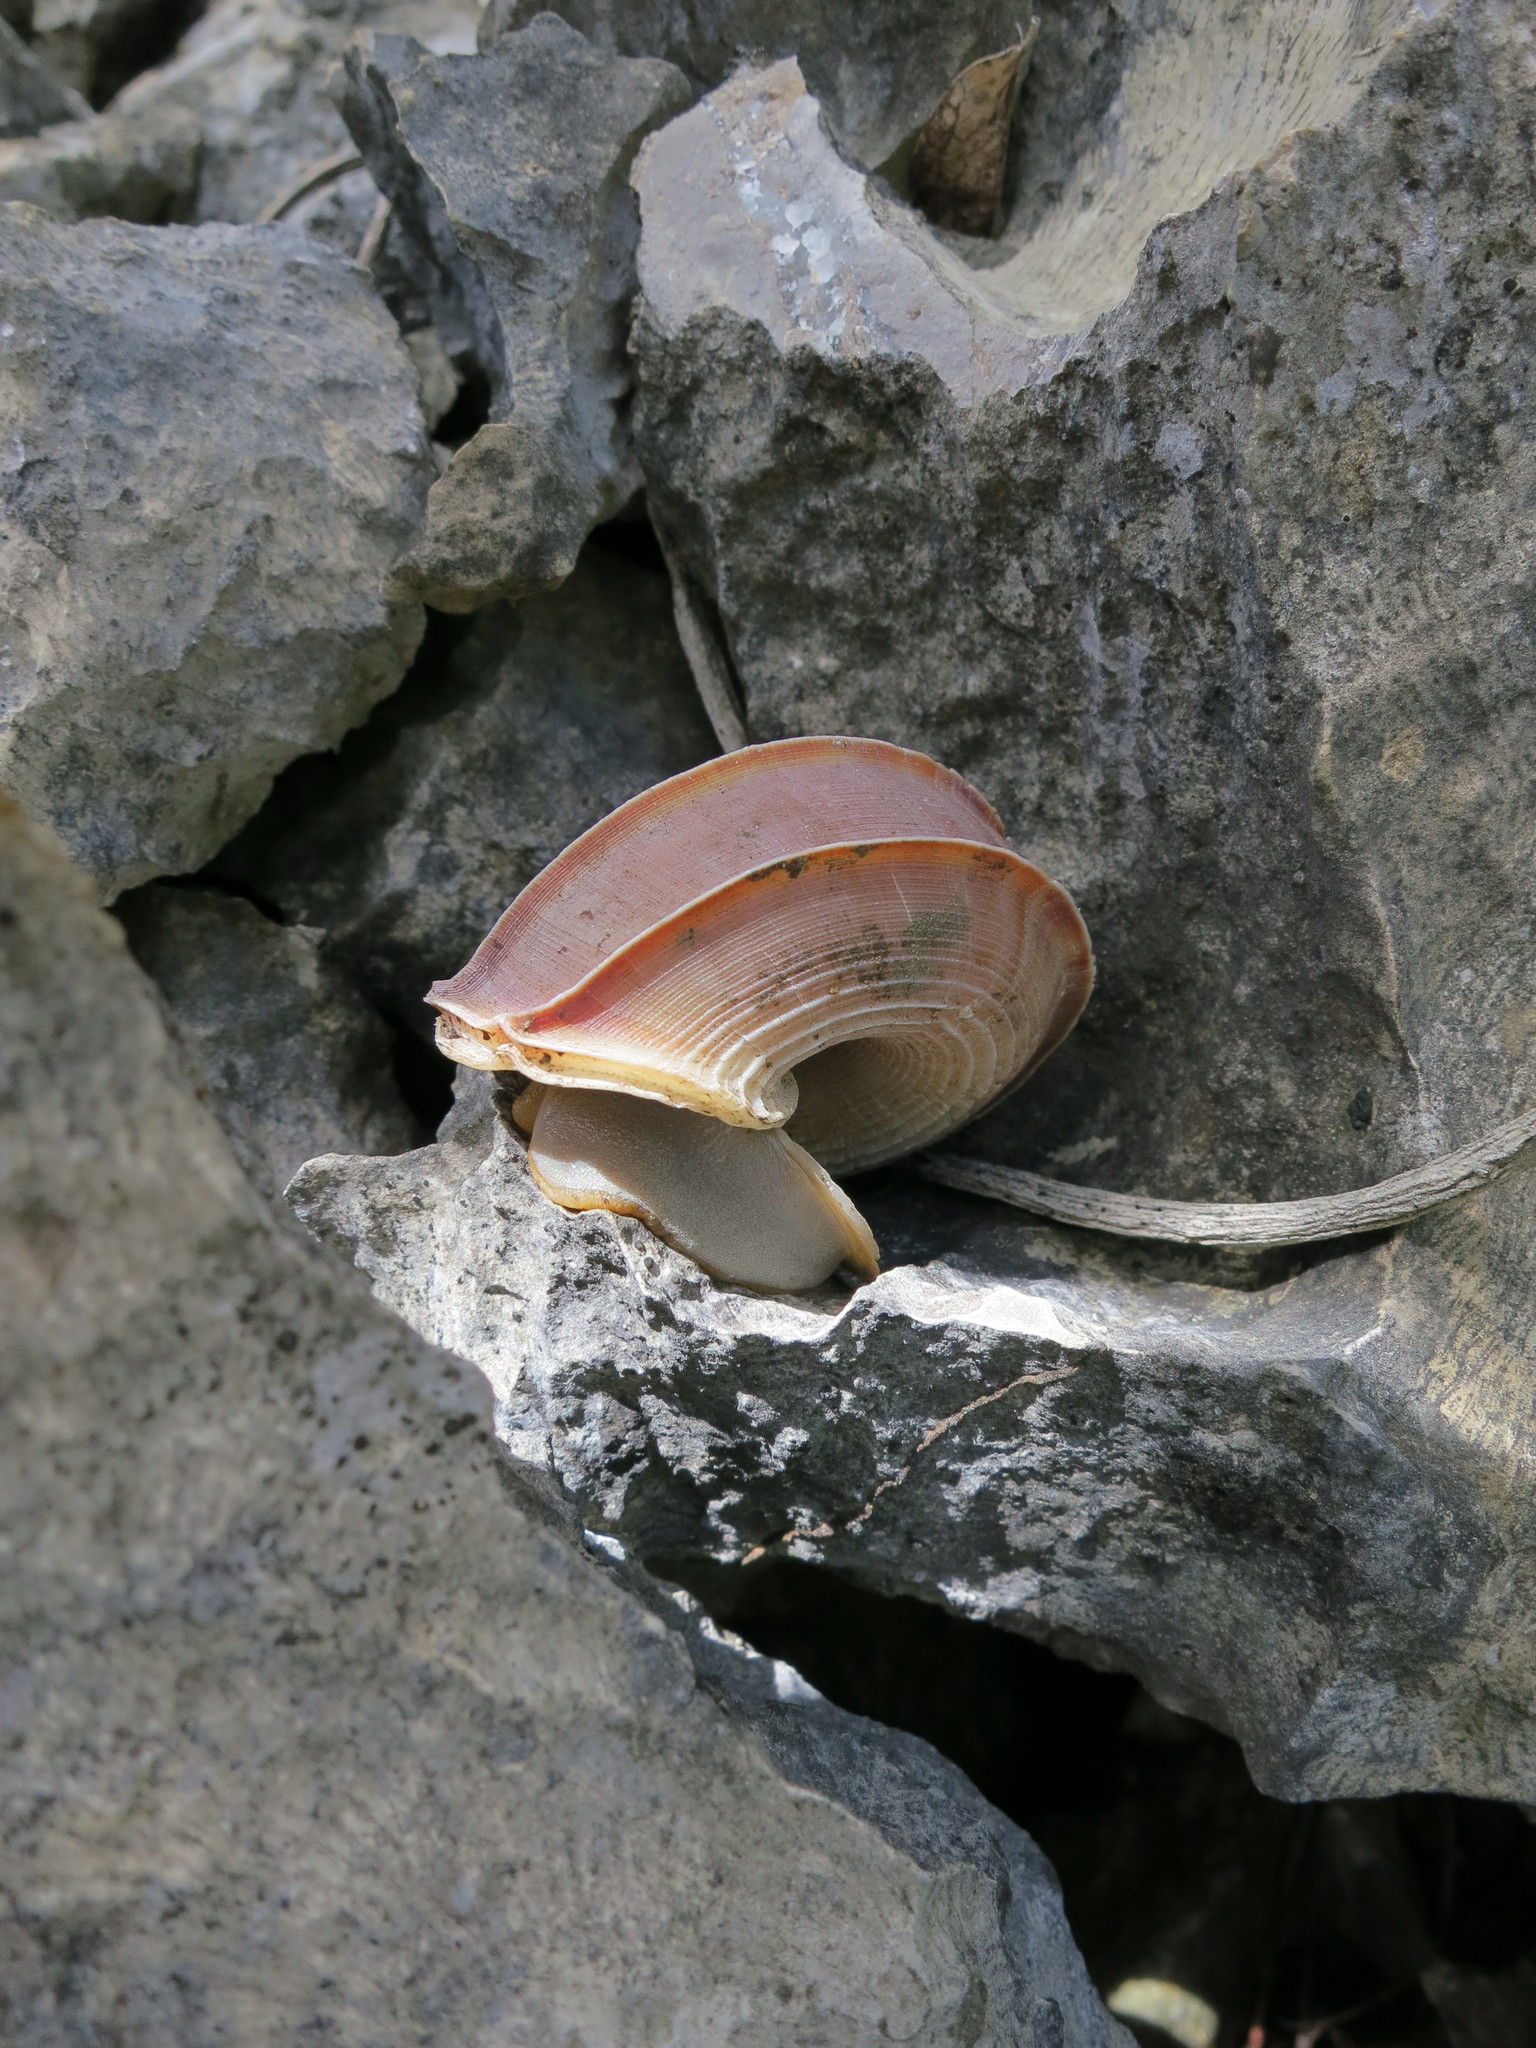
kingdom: Animalia
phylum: Mollusca
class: Gastropoda
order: Littorinimorpha
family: Pomatiidae
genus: Tropidophora
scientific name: Tropidophora cuvieriana
